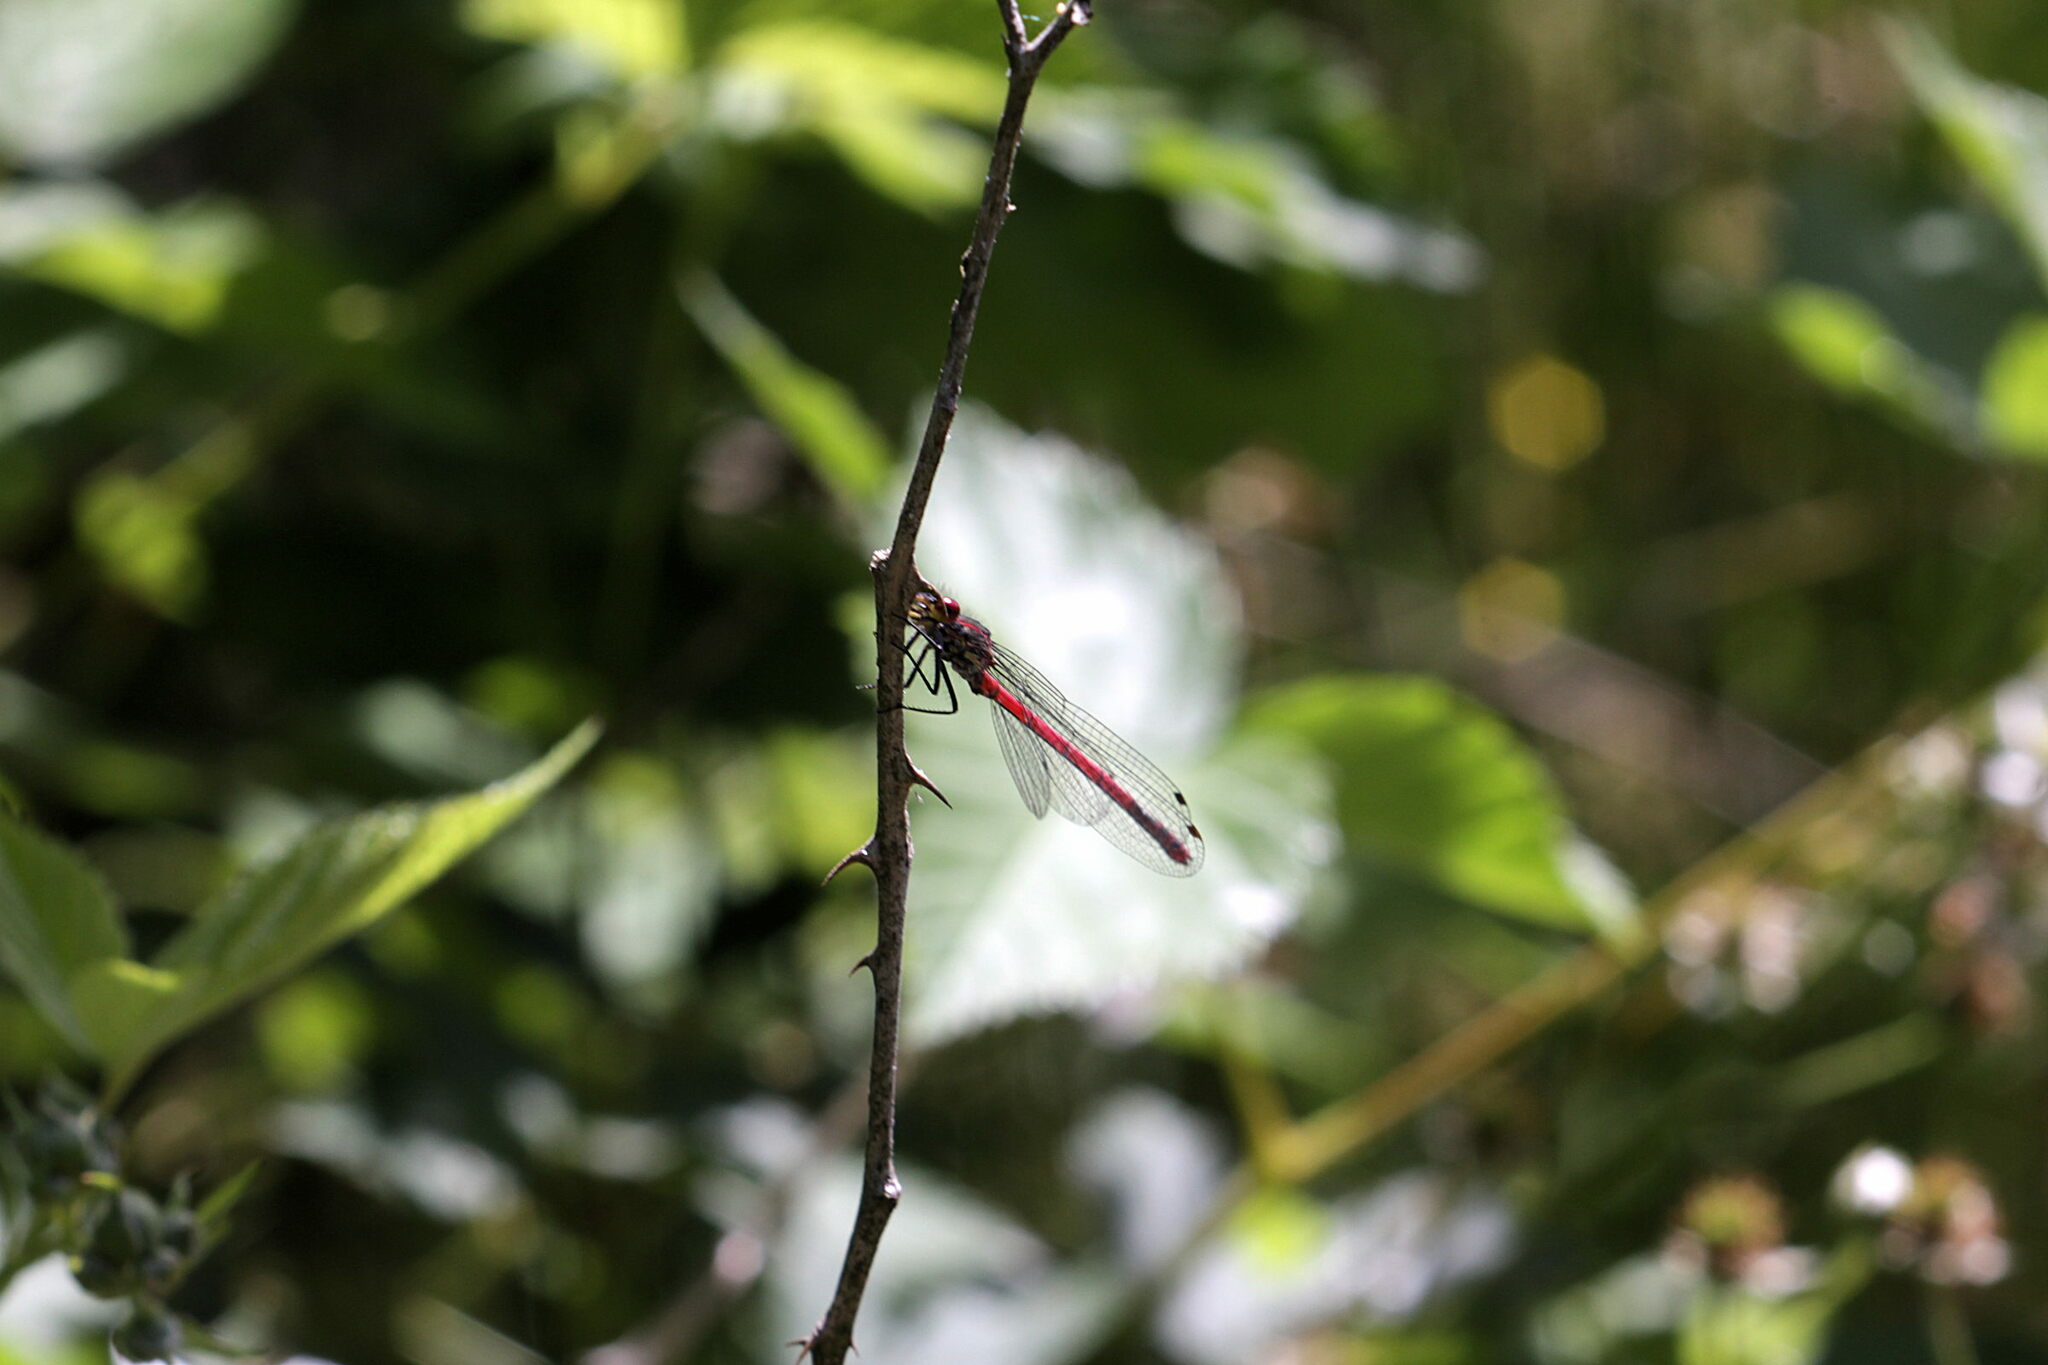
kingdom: Animalia
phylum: Arthropoda
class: Insecta
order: Odonata
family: Coenagrionidae
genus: Pyrrhosoma
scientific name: Pyrrhosoma nymphula
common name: Large red damsel
